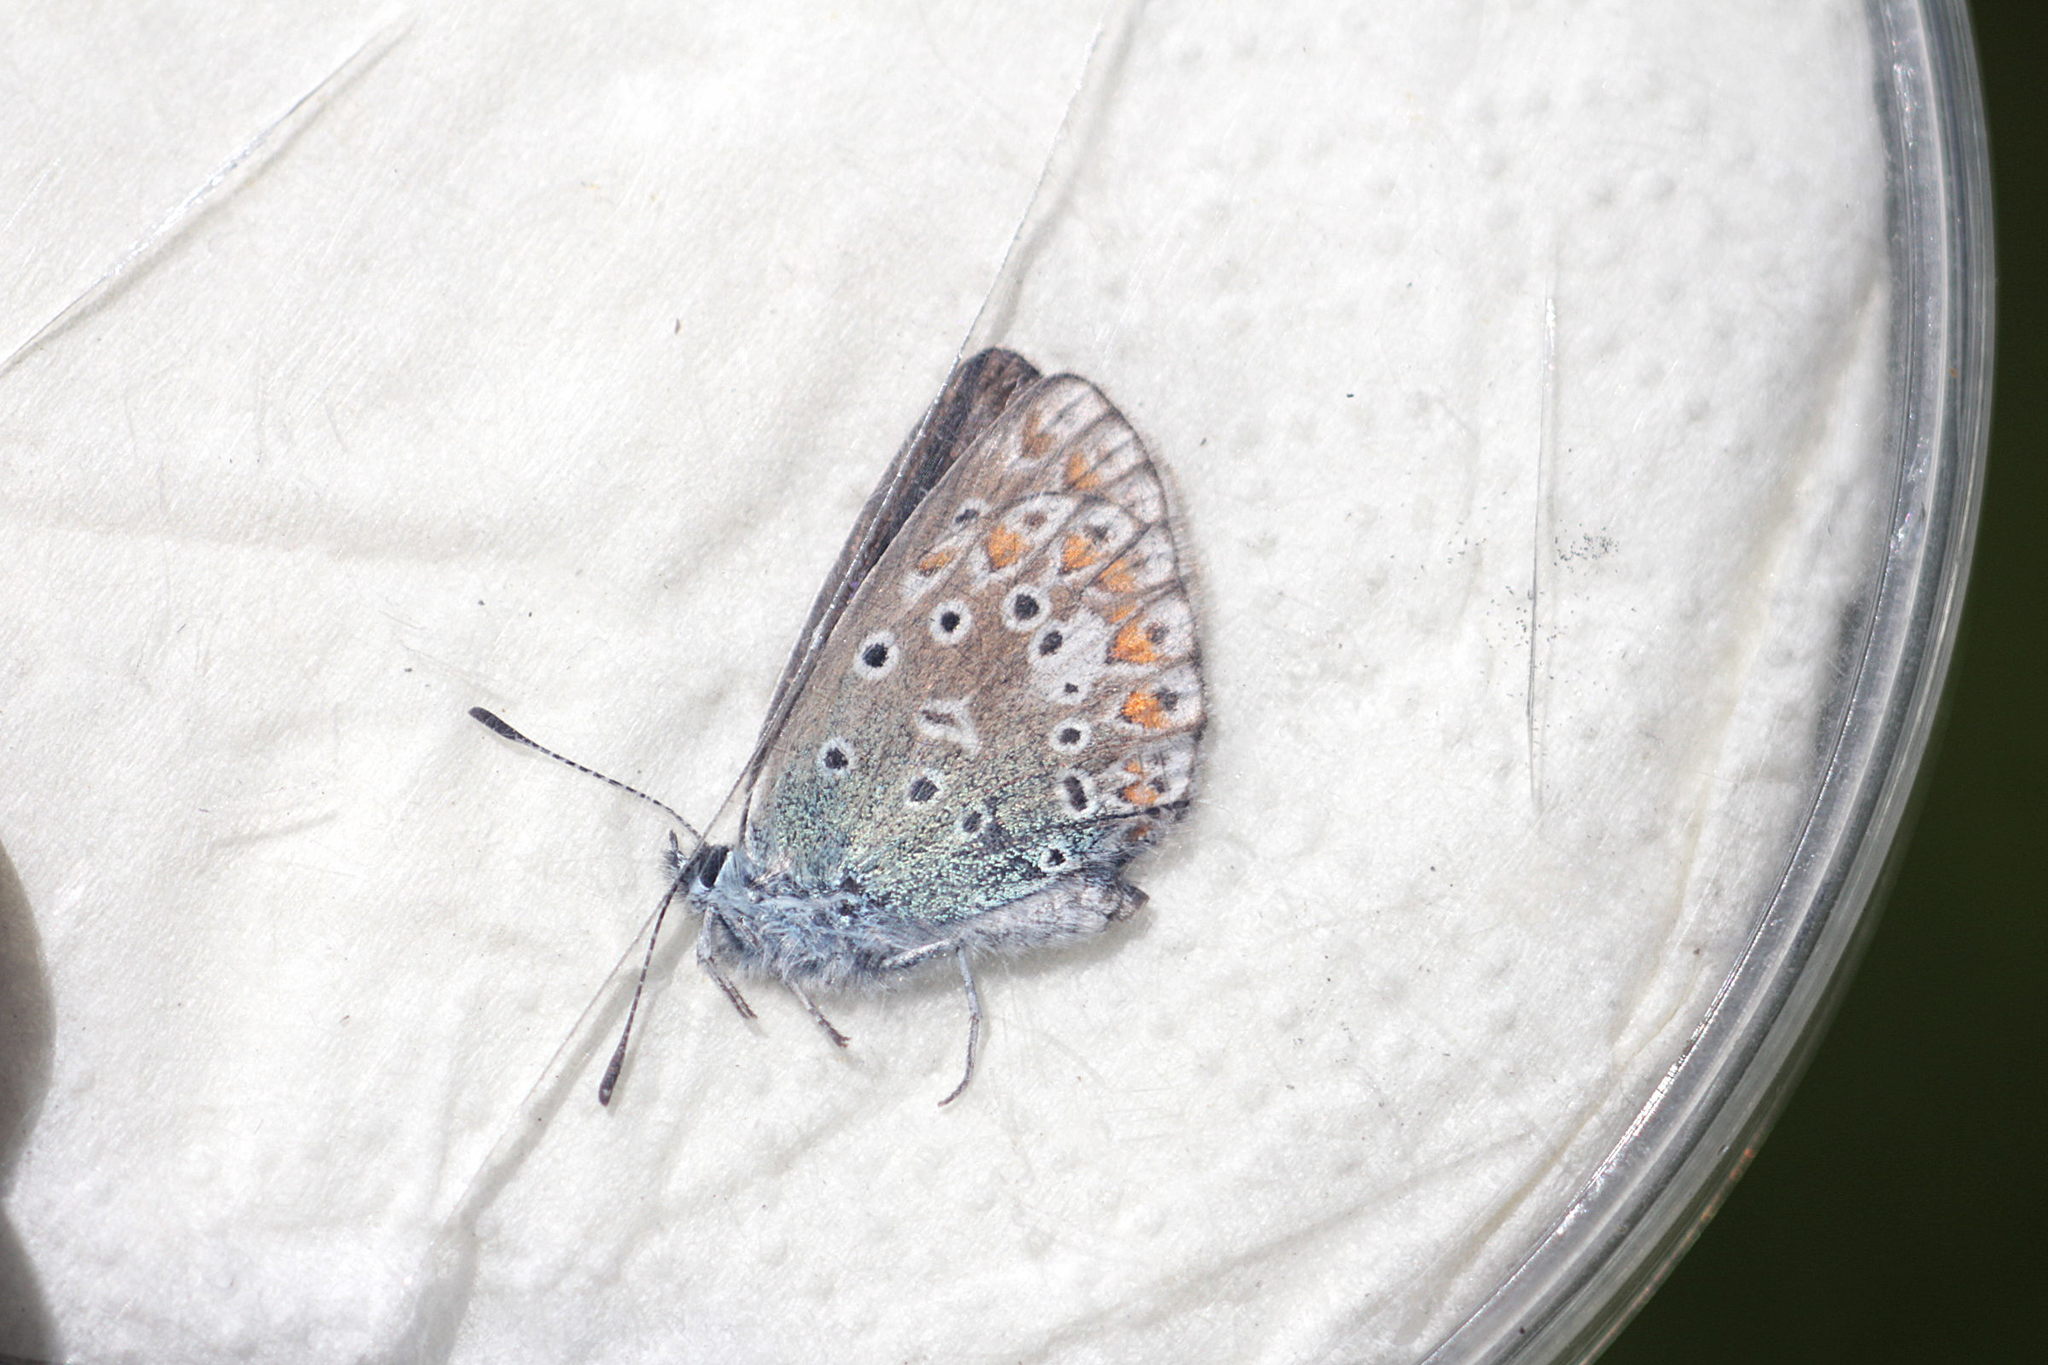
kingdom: Animalia
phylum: Arthropoda
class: Insecta
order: Lepidoptera
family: Lycaenidae
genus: Polyommatus
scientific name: Polyommatus icarus
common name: Common blue
